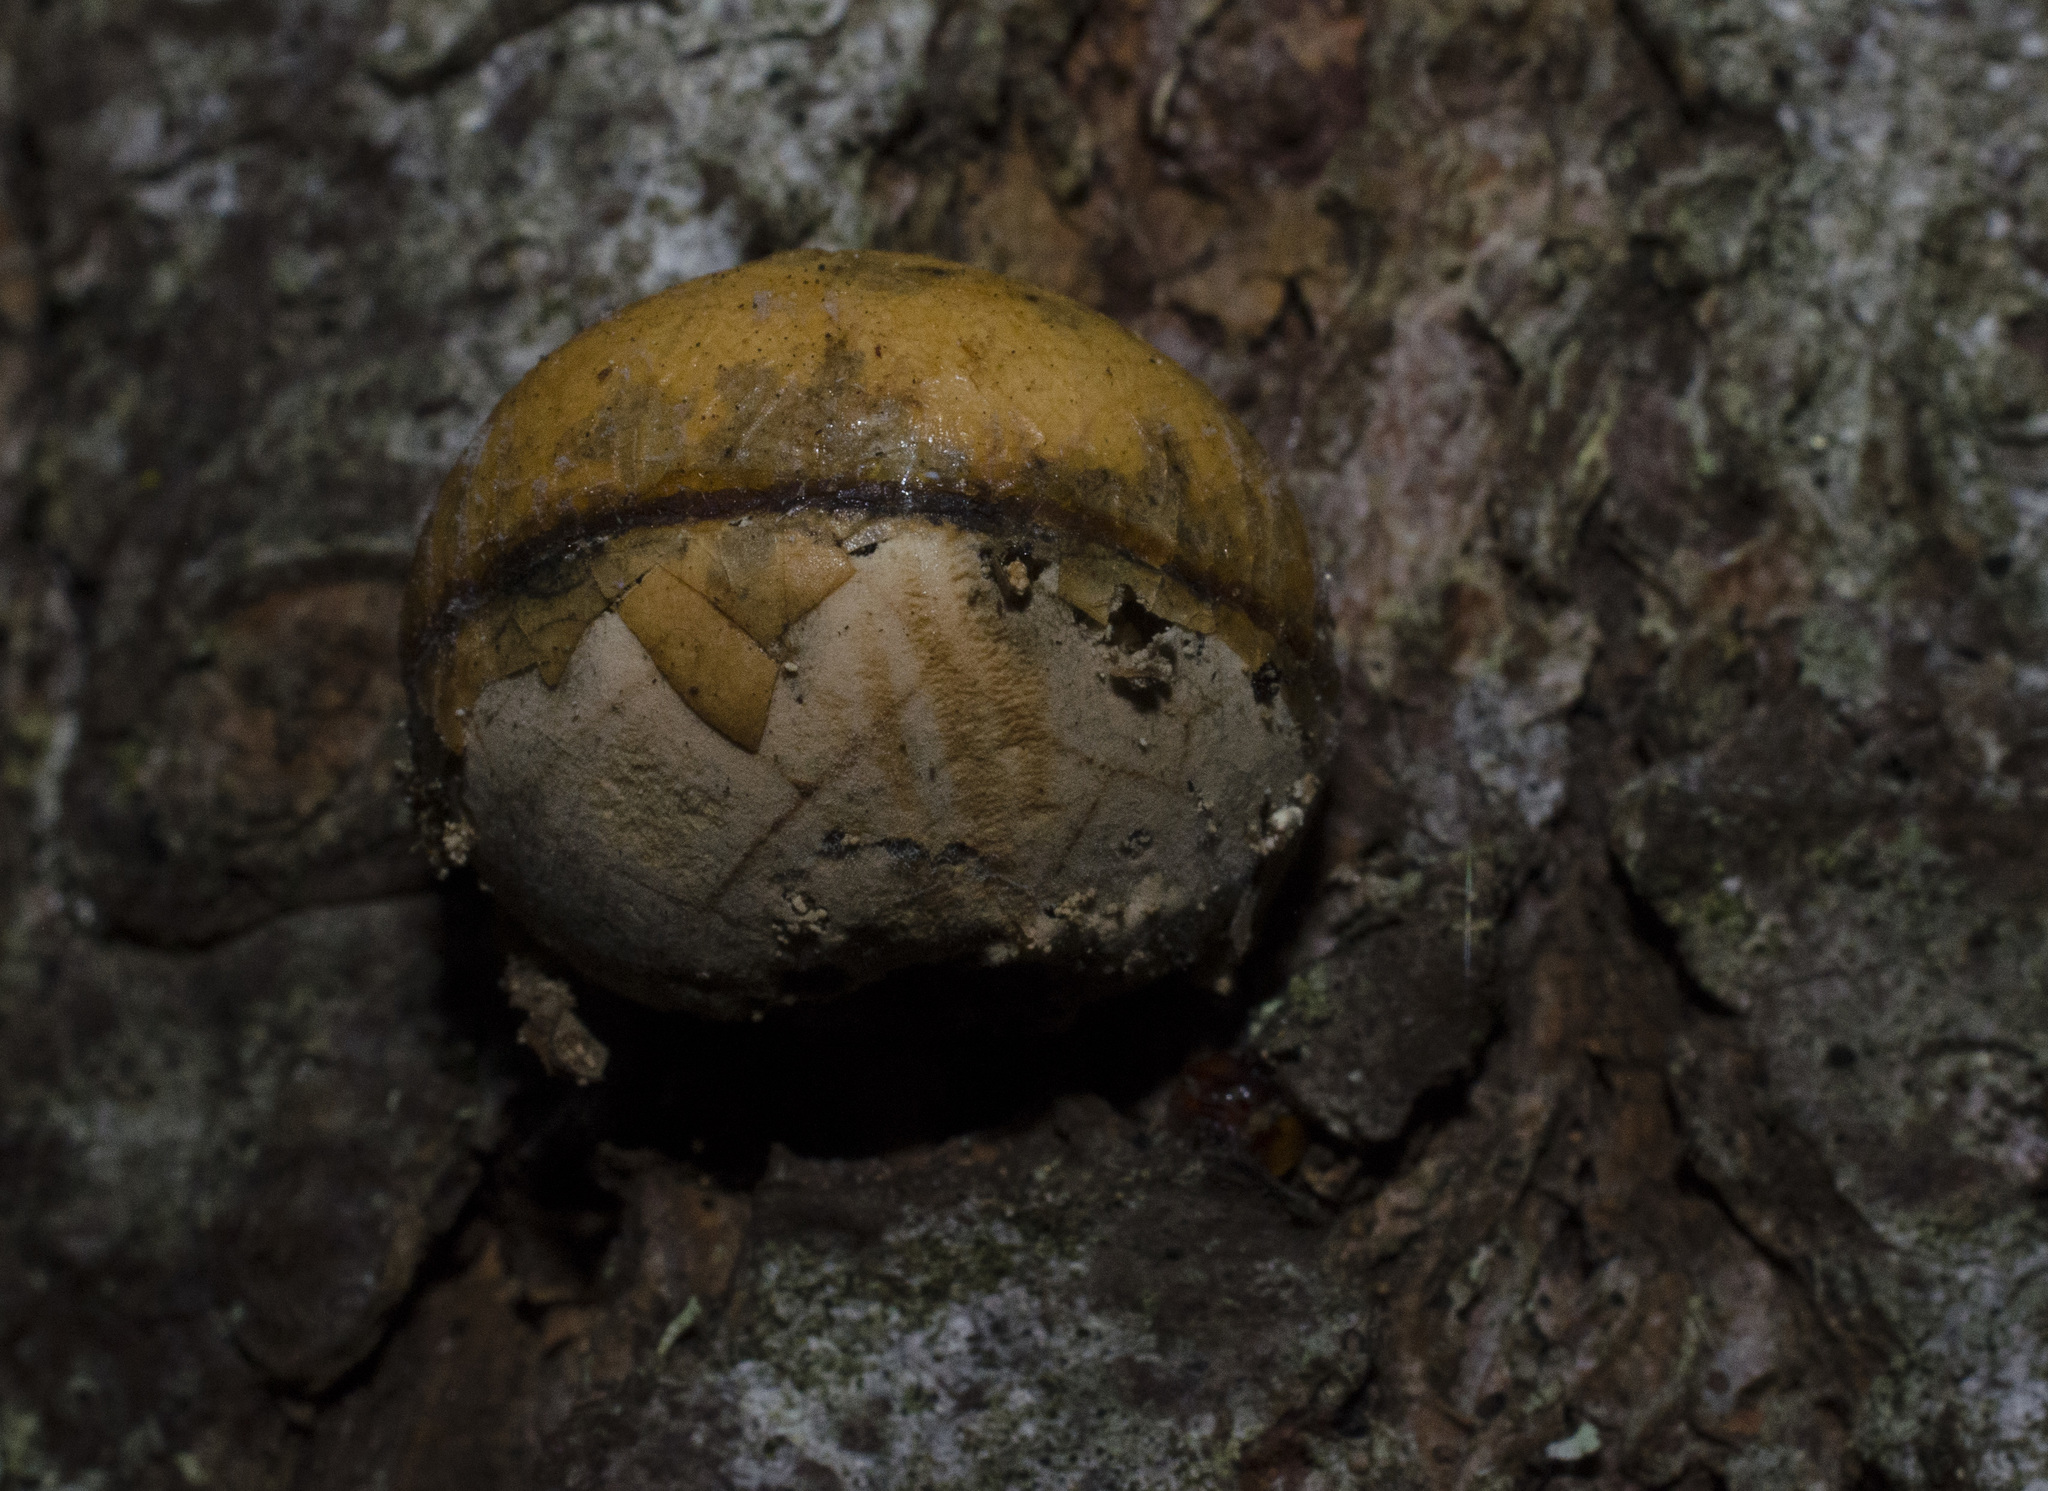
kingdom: Fungi
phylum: Basidiomycota
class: Agaricomycetes
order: Polyporales
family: Polyporaceae
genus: Cryptoporus
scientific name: Cryptoporus volvatus
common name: Veiled polypore
